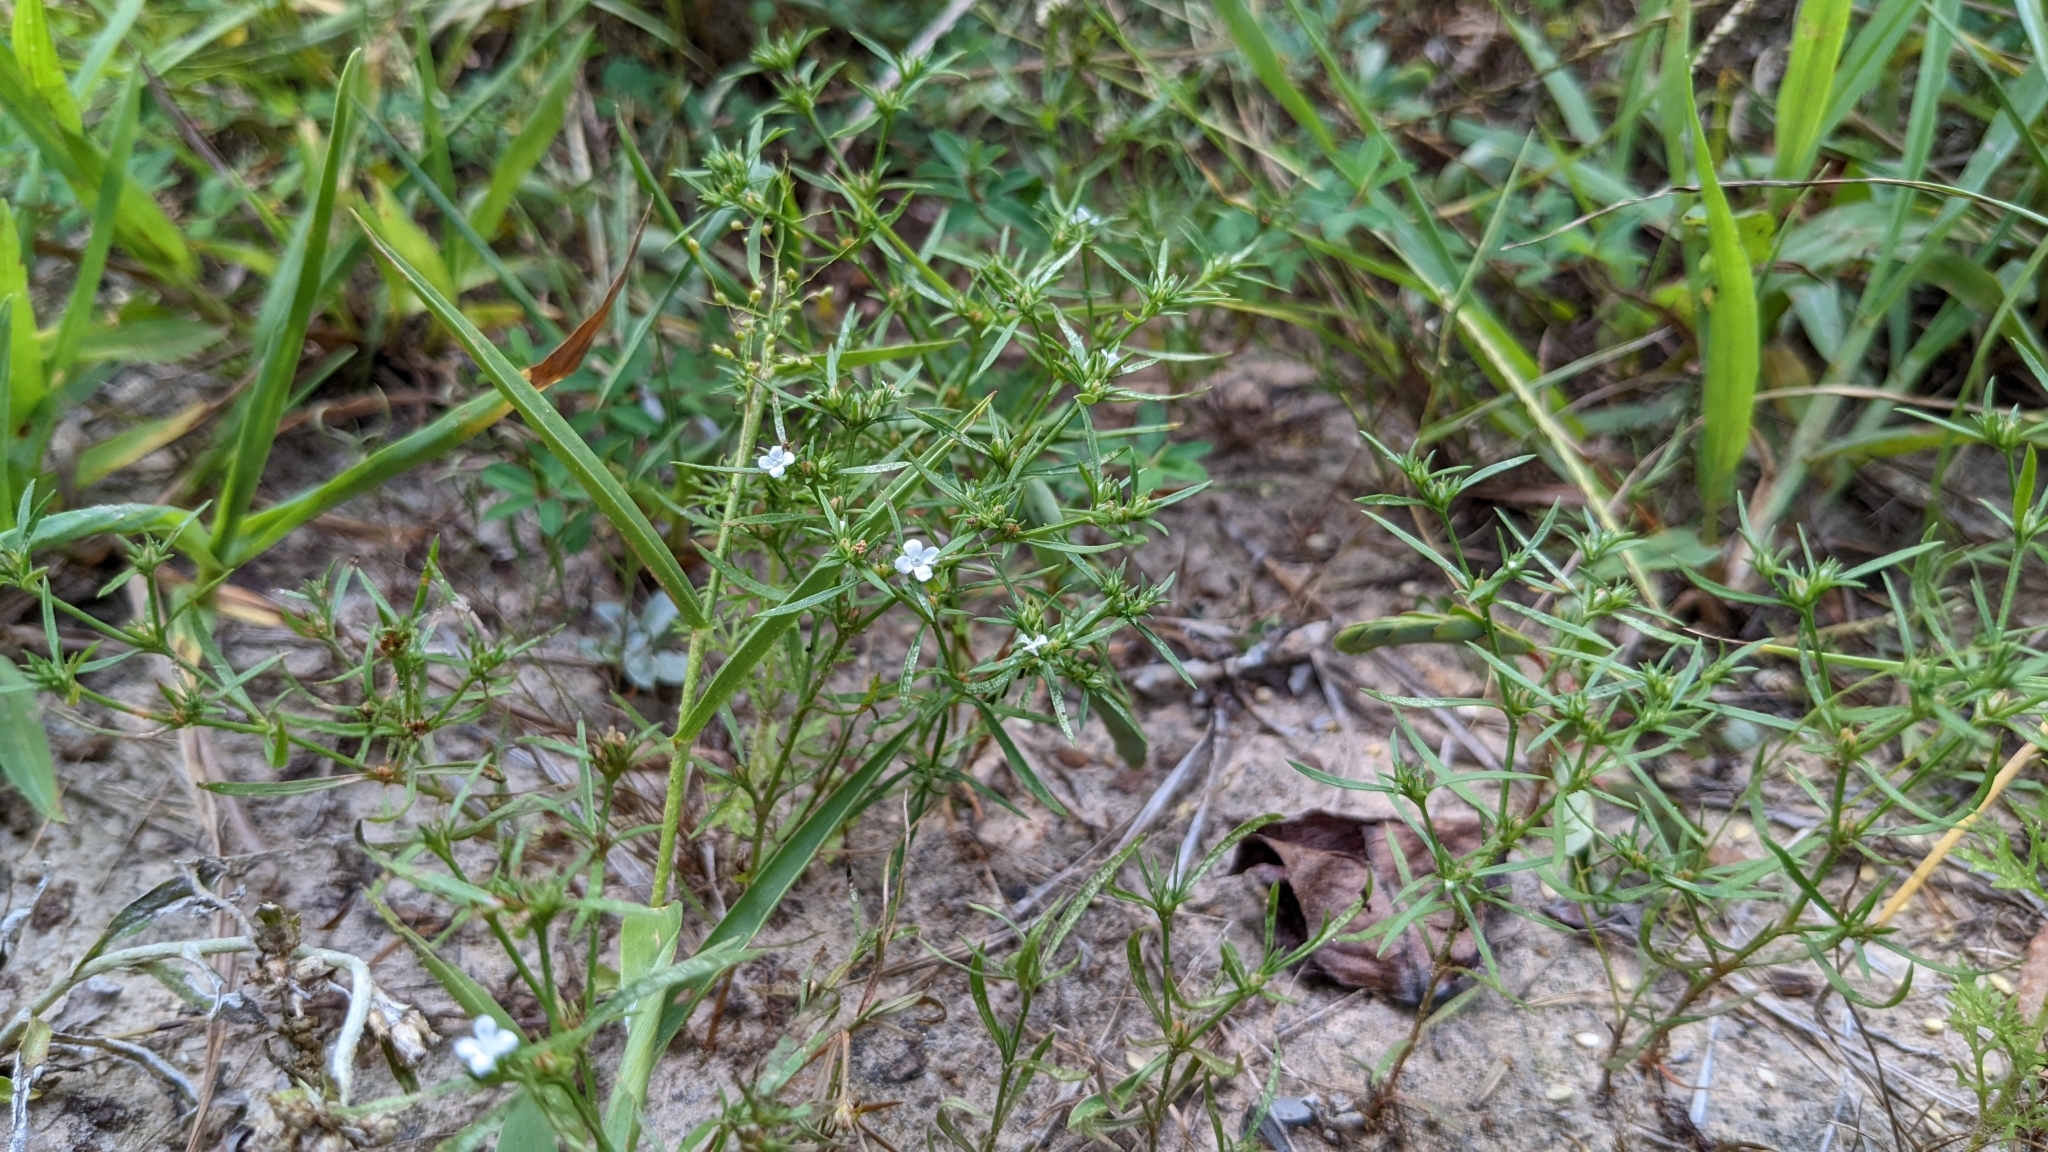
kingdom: Plantae
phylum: Tracheophyta
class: Magnoliopsida
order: Lamiales
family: Tetrachondraceae
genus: Polypremum
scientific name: Polypremum procumbens
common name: Juniper-leaf
